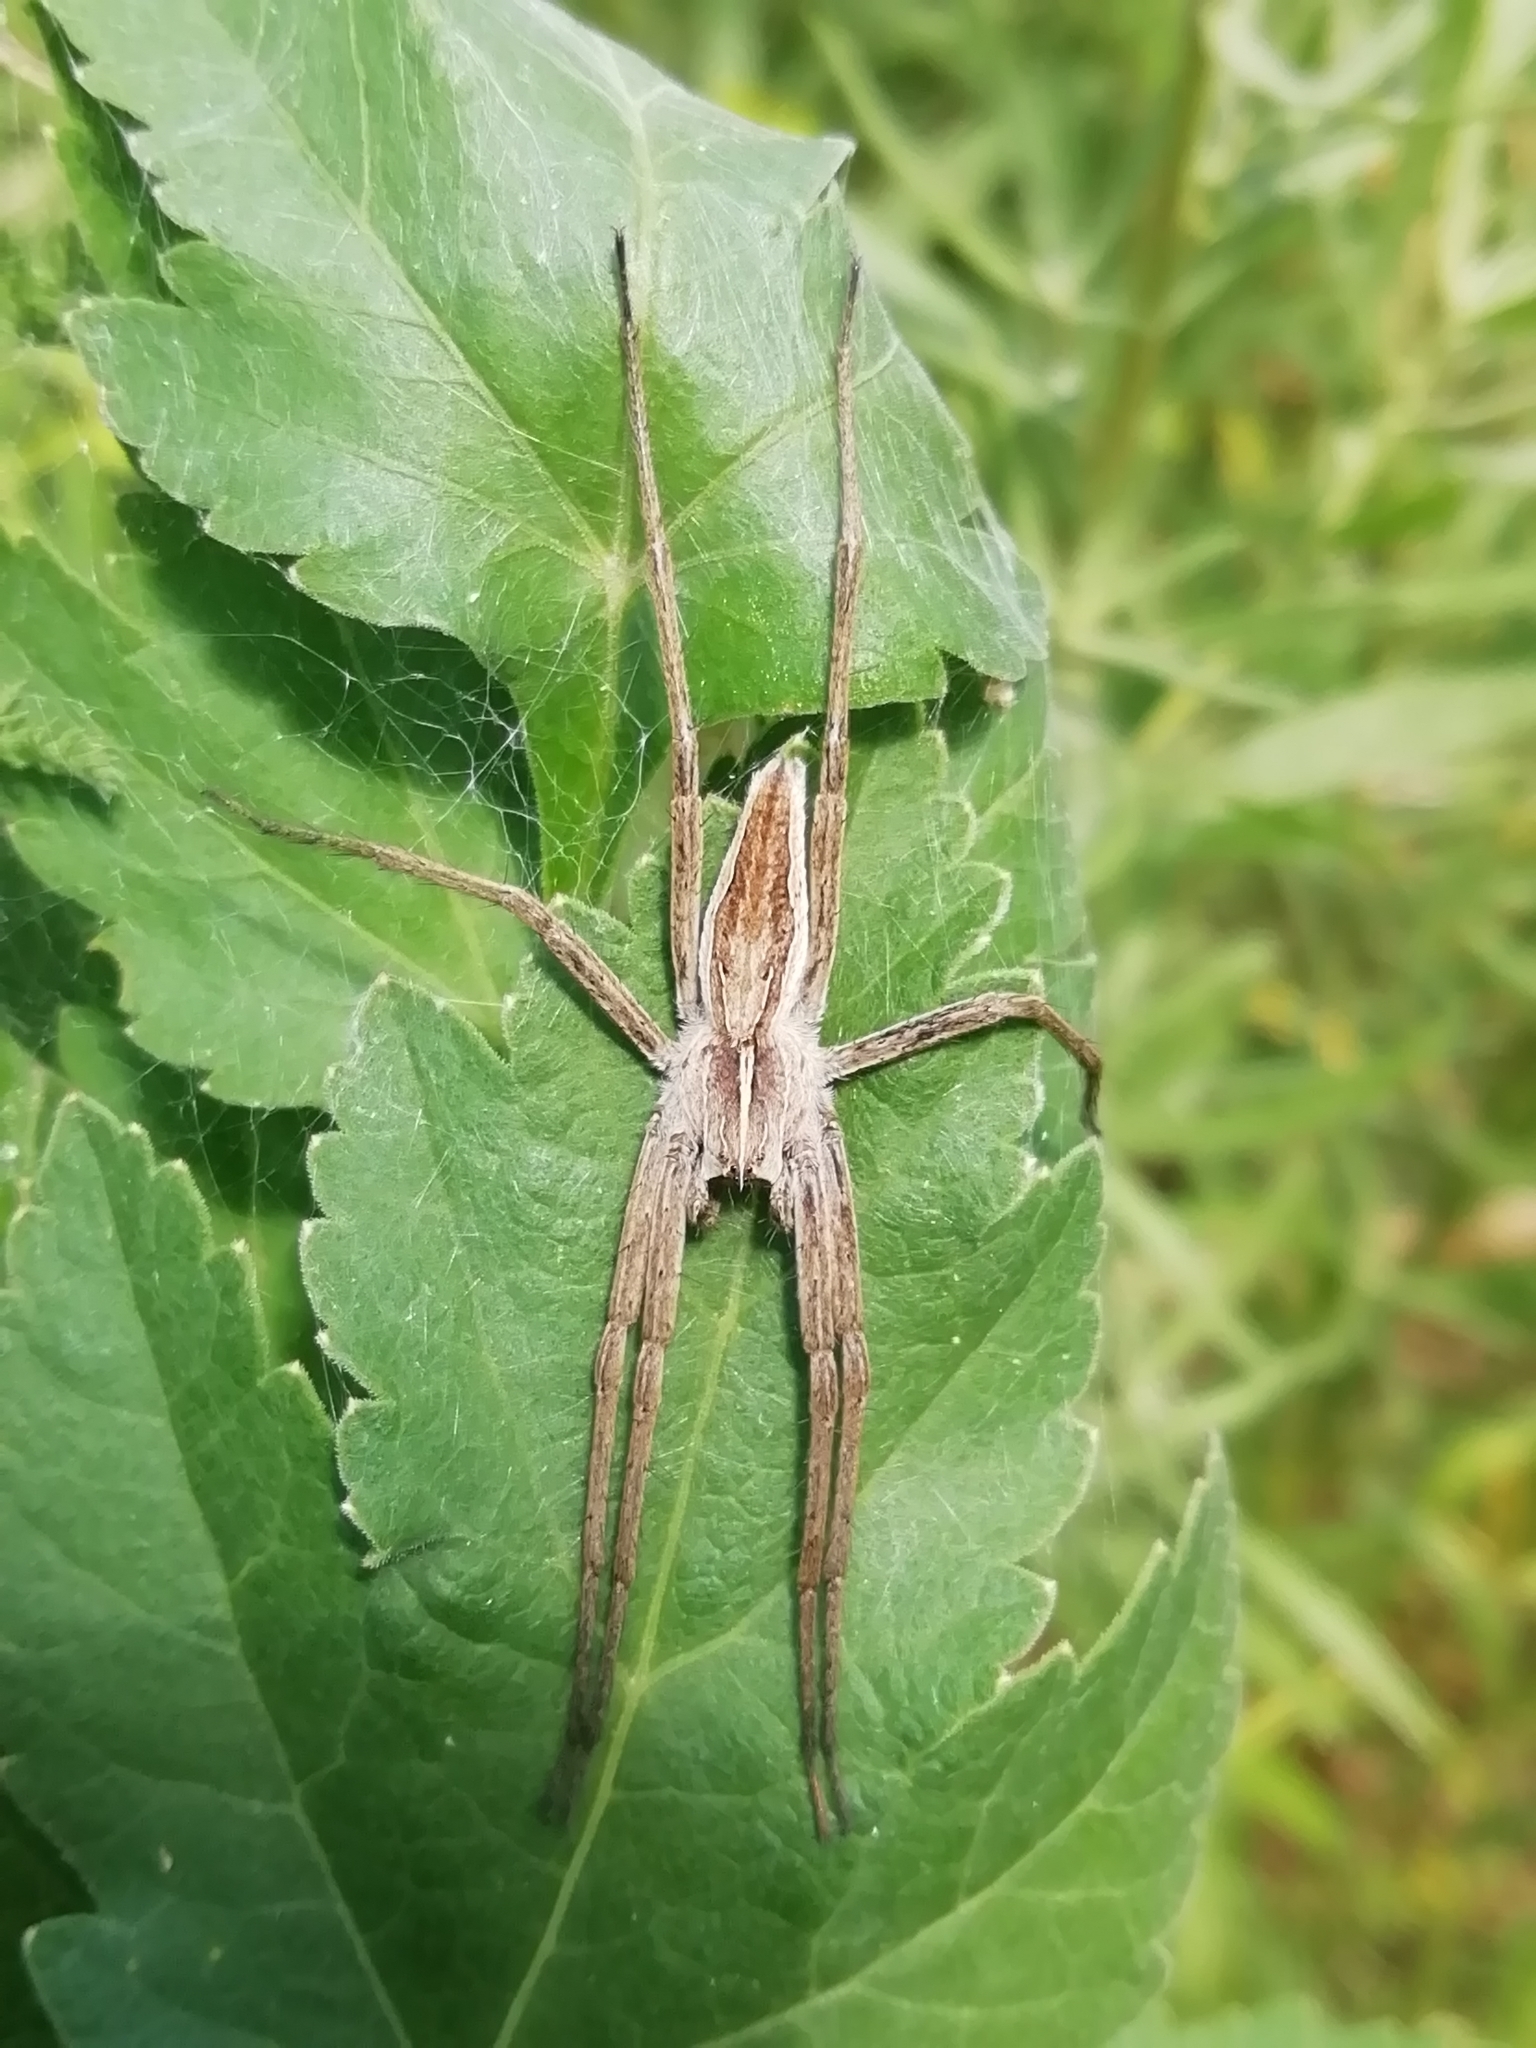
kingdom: Animalia
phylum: Arthropoda
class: Arachnida
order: Araneae
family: Pisauridae
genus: Pisaura
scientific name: Pisaura mirabilis
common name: Tent spider
